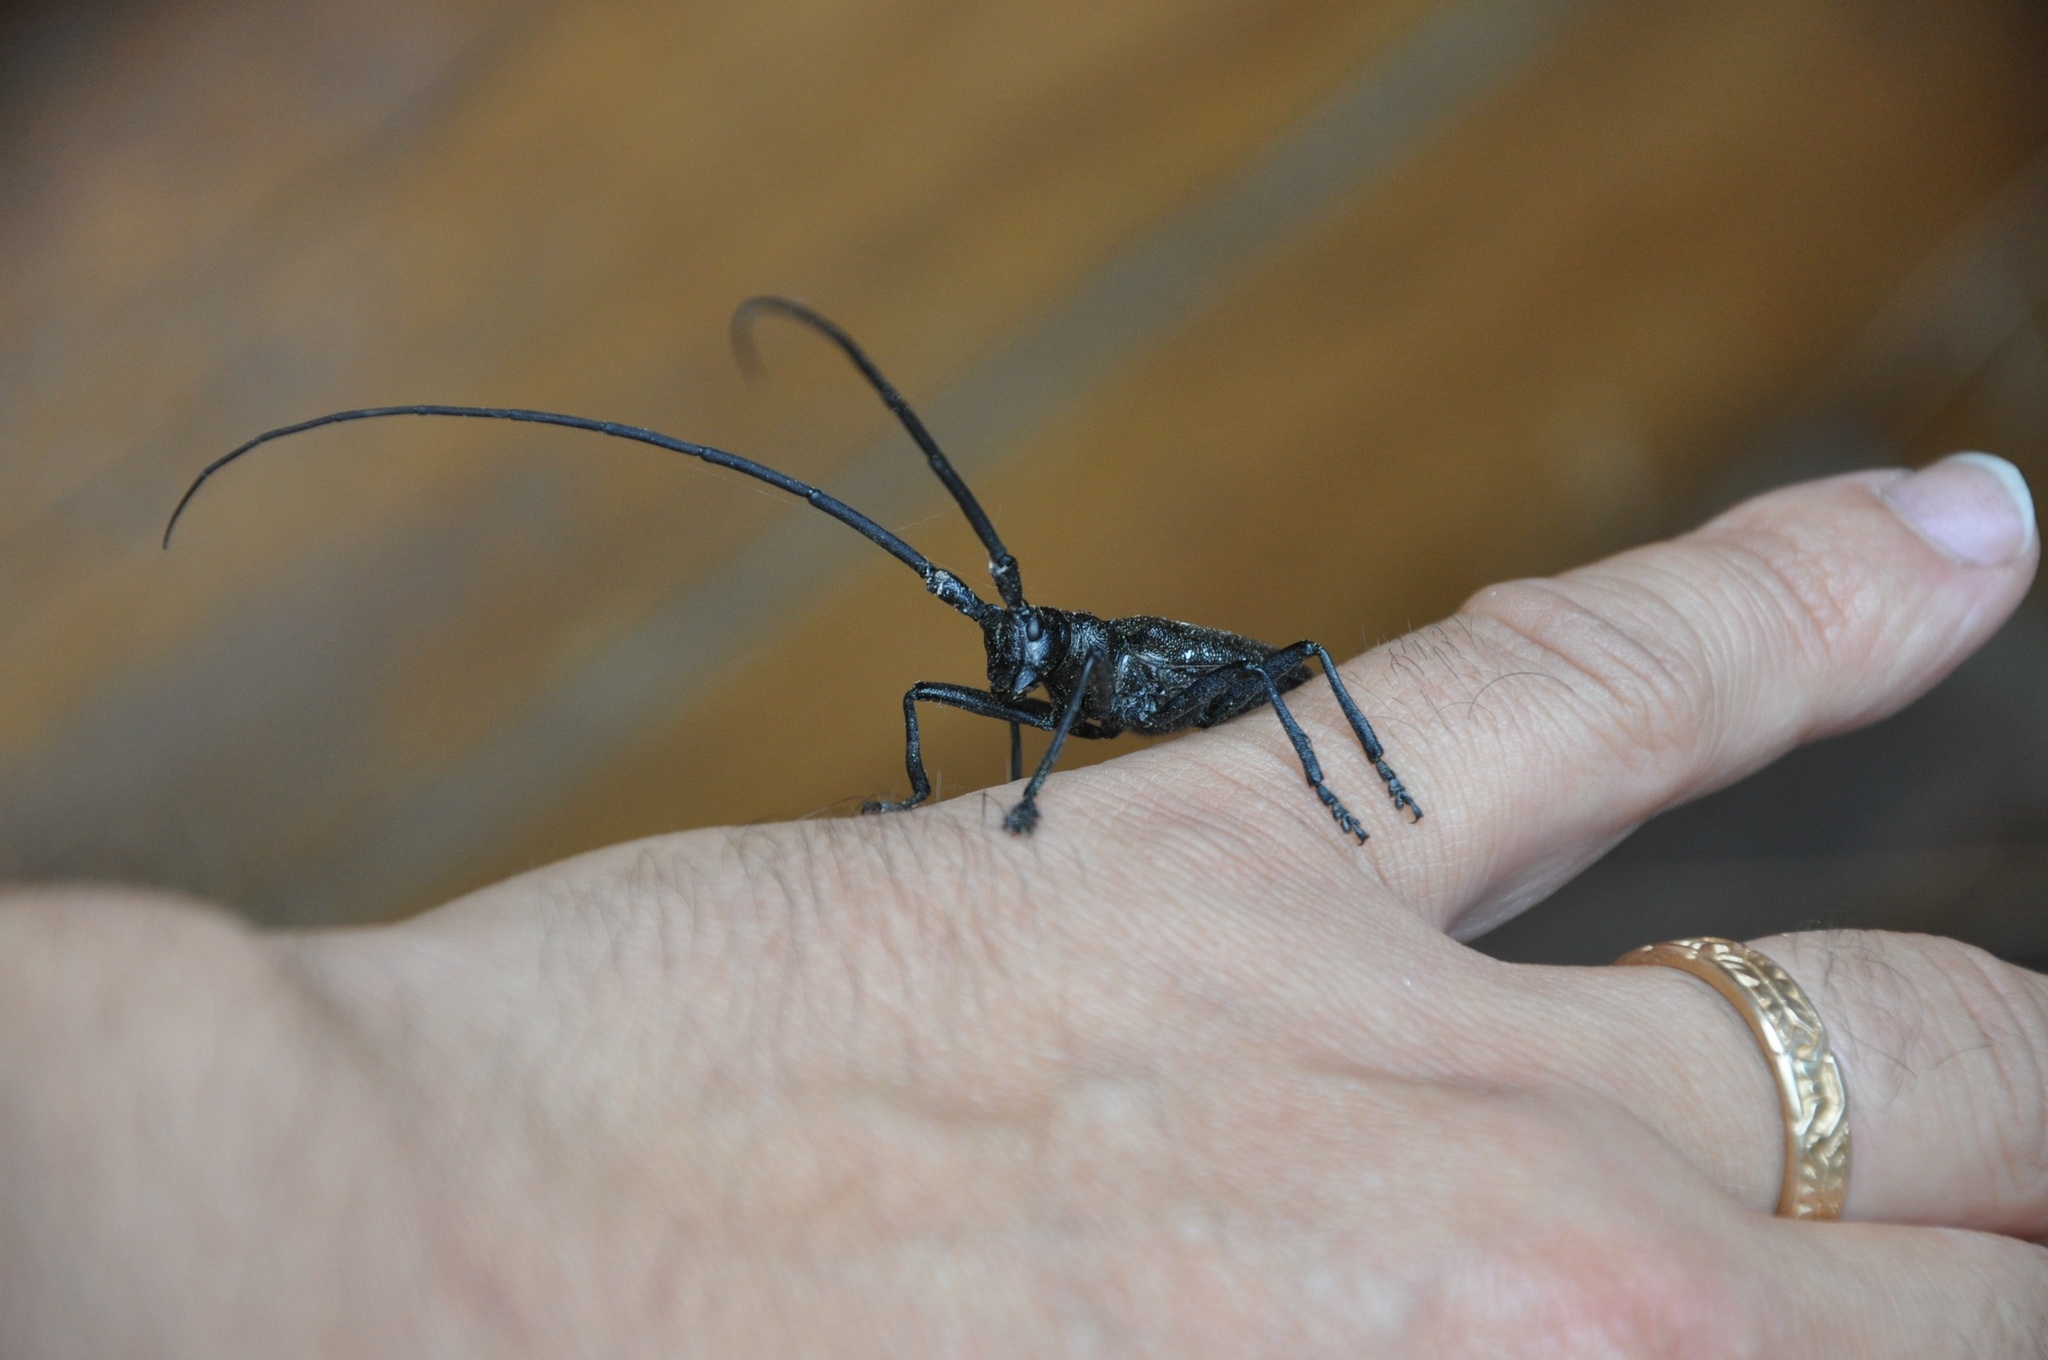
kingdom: Animalia
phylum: Arthropoda
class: Insecta
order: Coleoptera
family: Cerambycidae
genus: Monochamus
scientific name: Monochamus scutellatus
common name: White-spotted sawyer beetle
